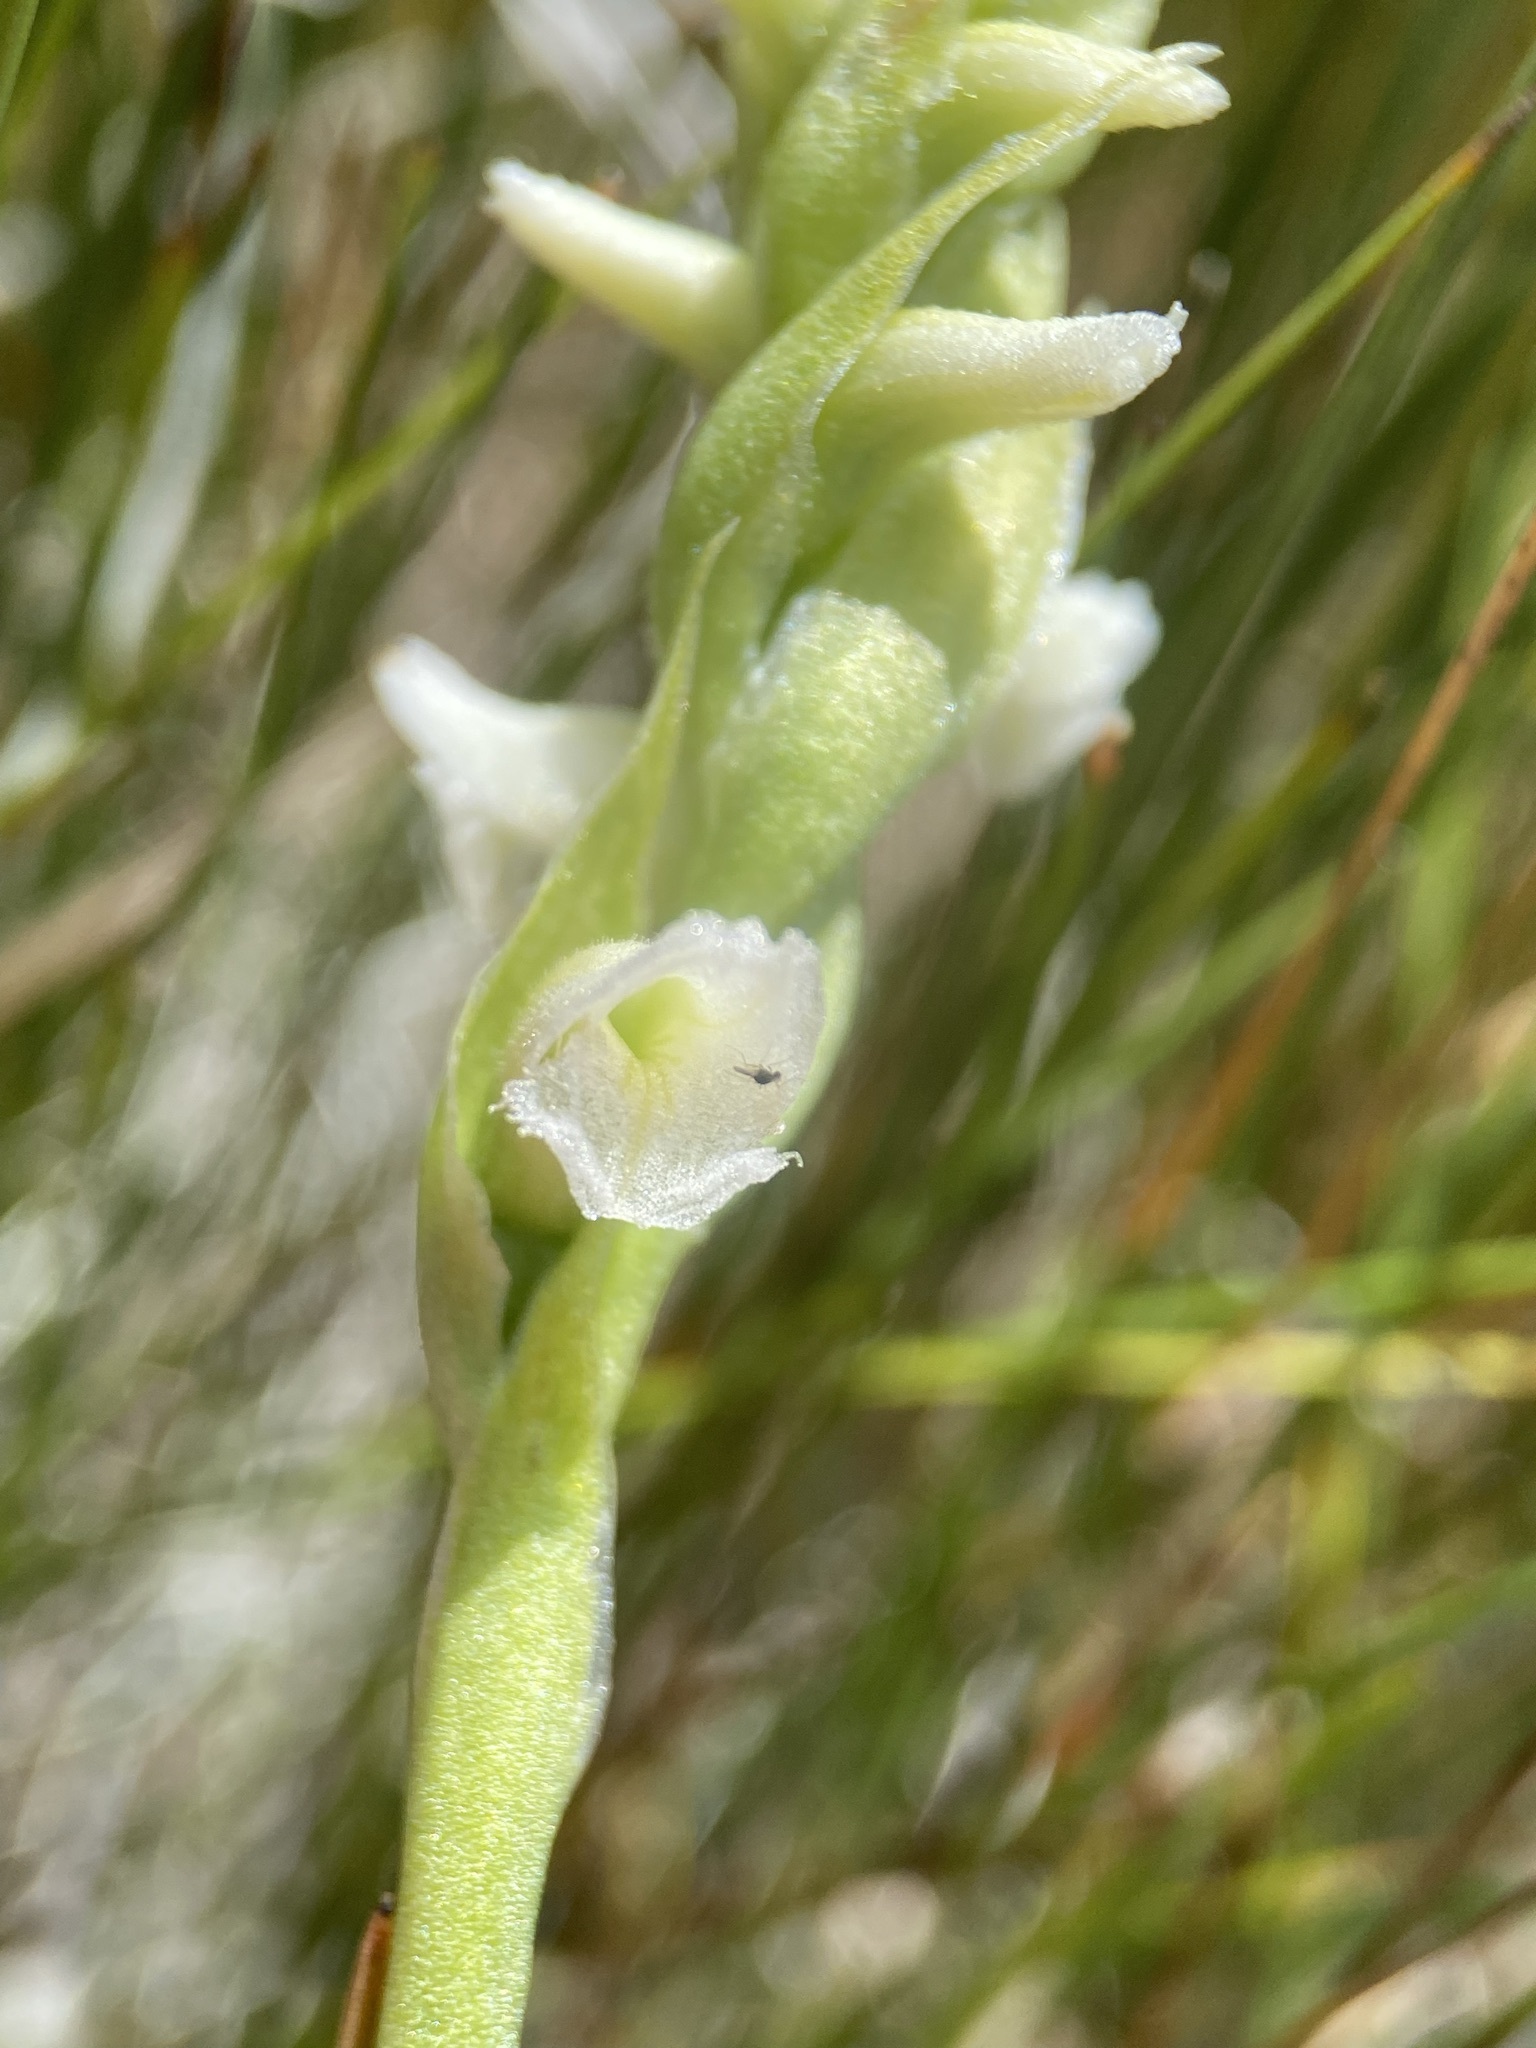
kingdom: Plantae
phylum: Tracheophyta
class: Liliopsida
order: Asparagales
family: Orchidaceae
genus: Spiranthes
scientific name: Spiranthes romanzoffiana
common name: Irish lady's-tresses
